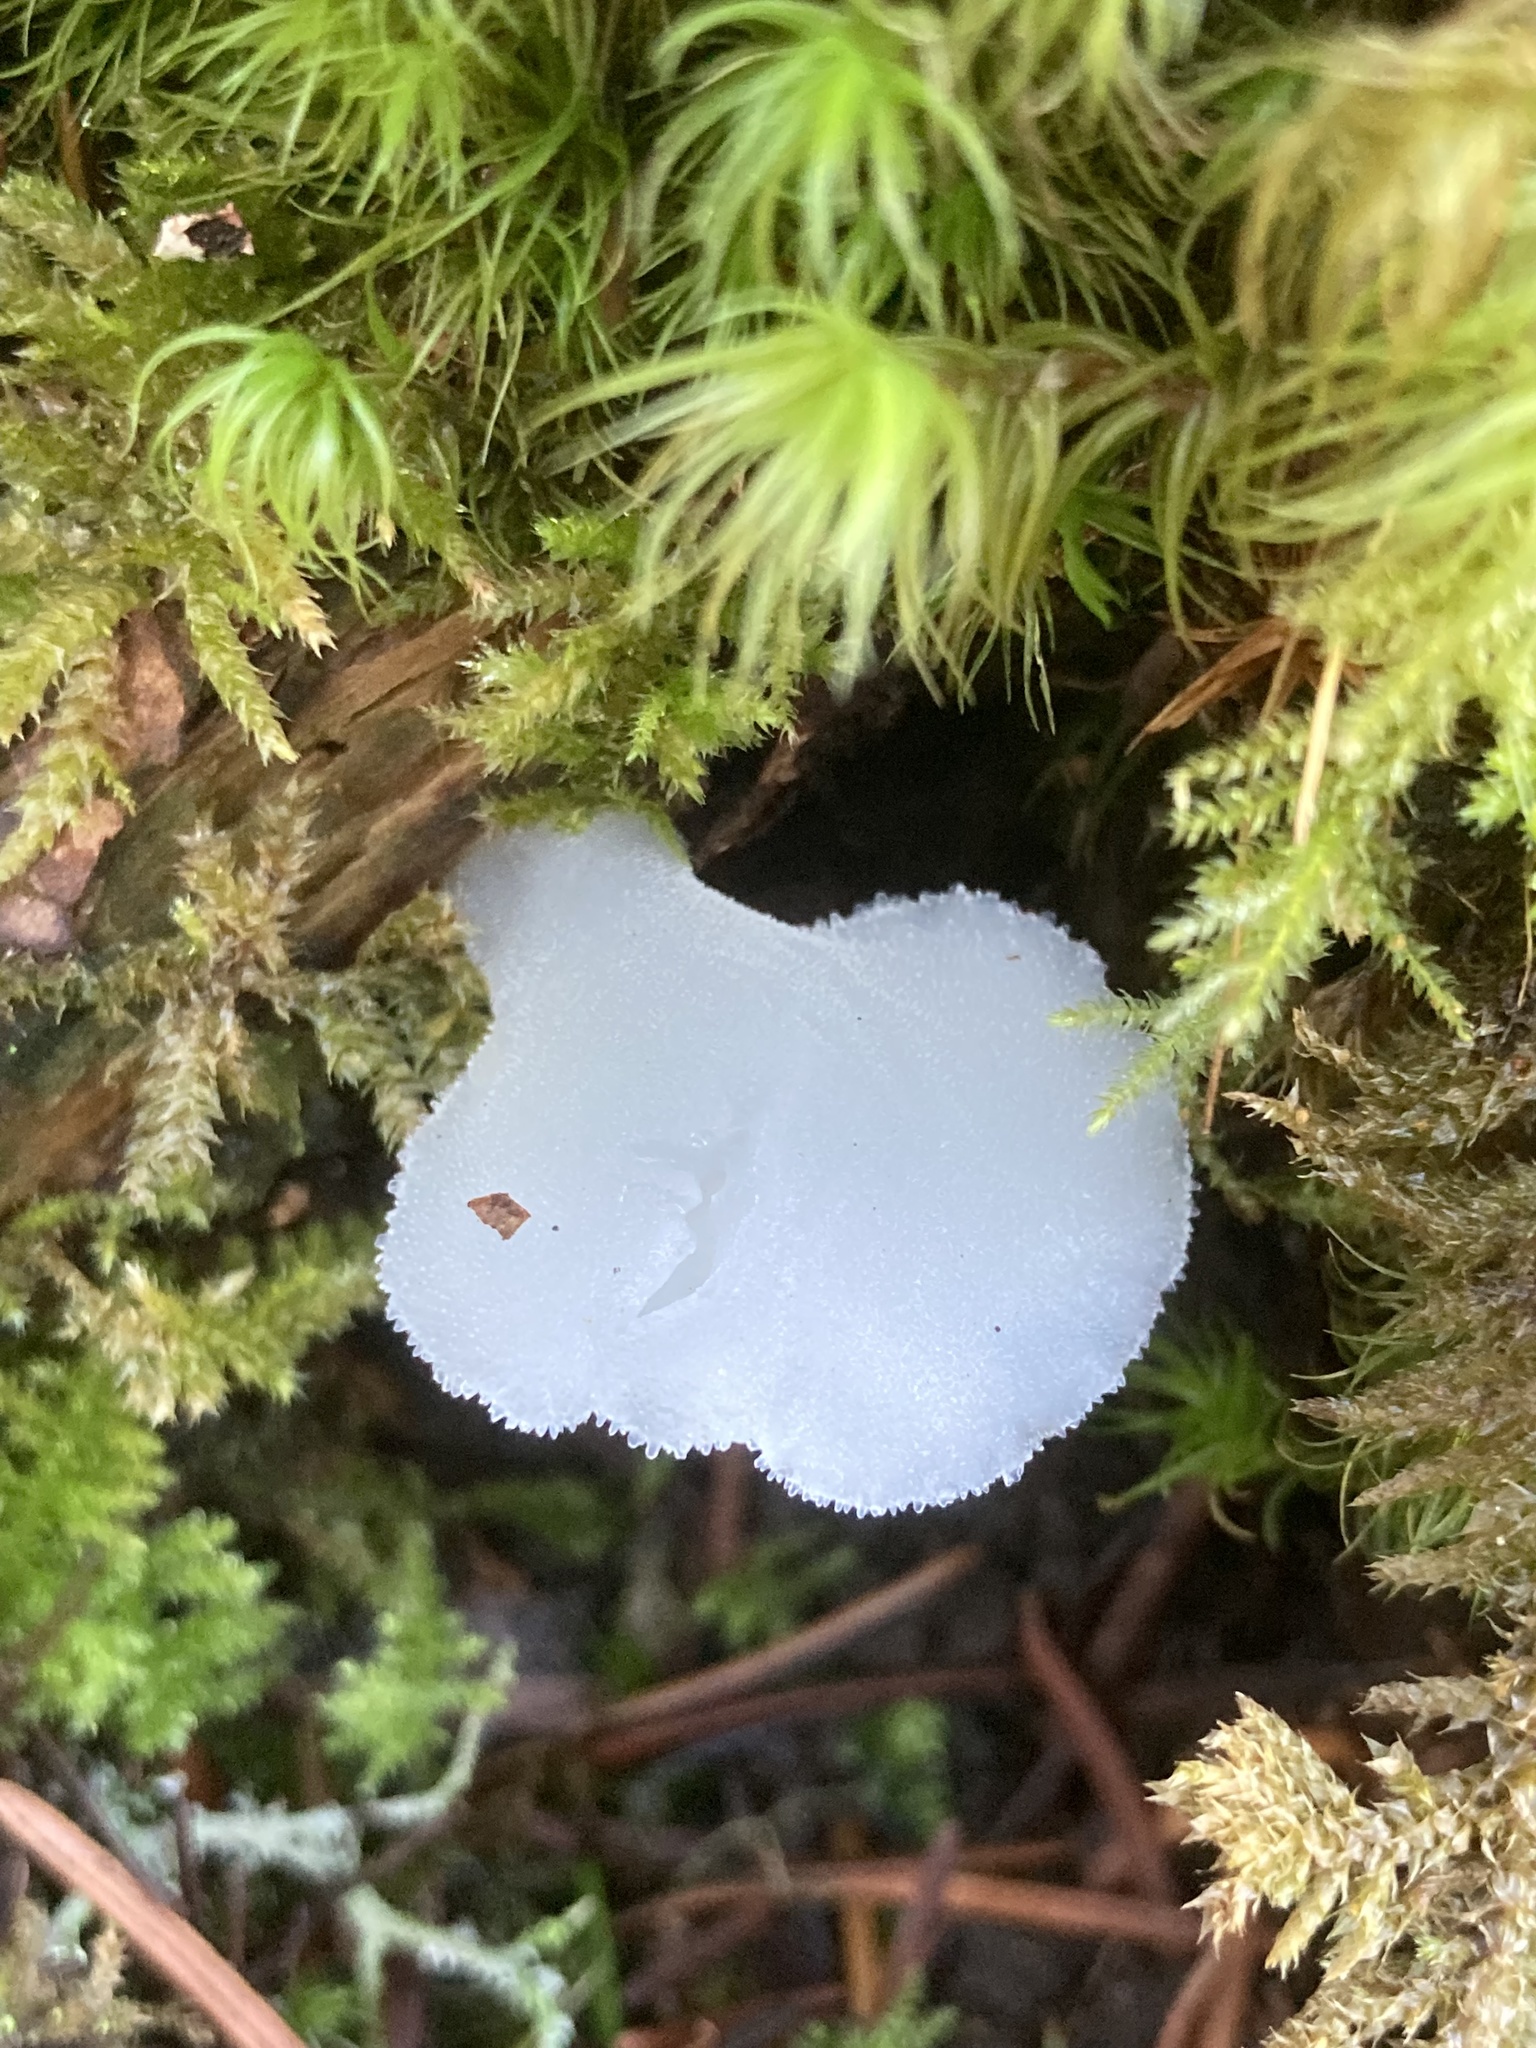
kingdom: Fungi
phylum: Basidiomycota
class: Agaricomycetes
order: Auriculariales
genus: Pseudohydnum
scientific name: Pseudohydnum gelatinosum
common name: Jelly tongue
